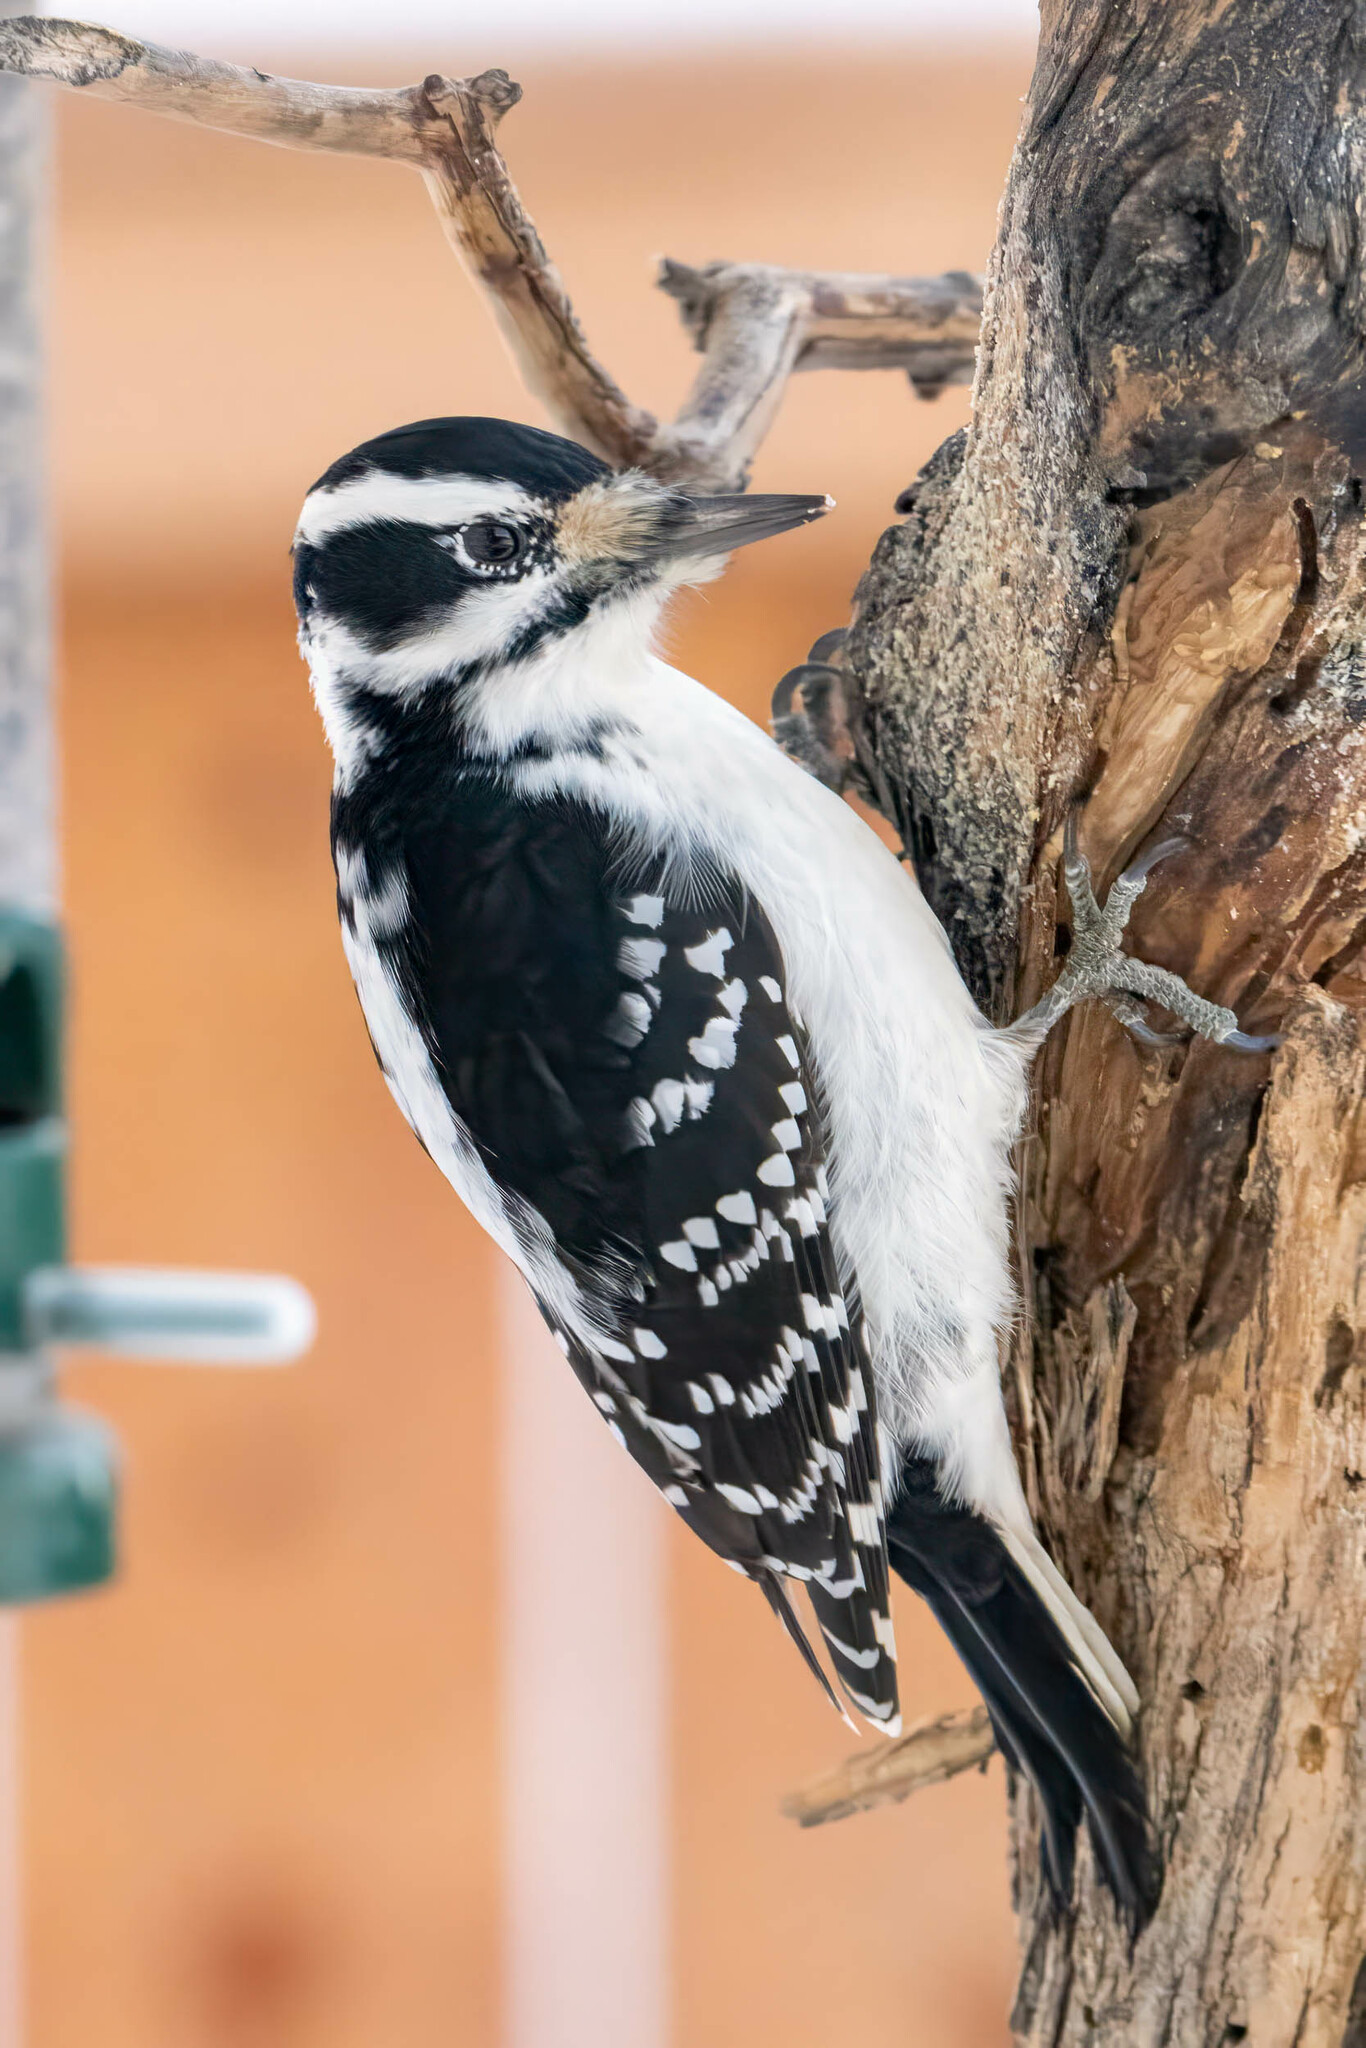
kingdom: Animalia
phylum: Chordata
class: Aves
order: Piciformes
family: Picidae
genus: Leuconotopicus
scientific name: Leuconotopicus villosus
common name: Hairy woodpecker
